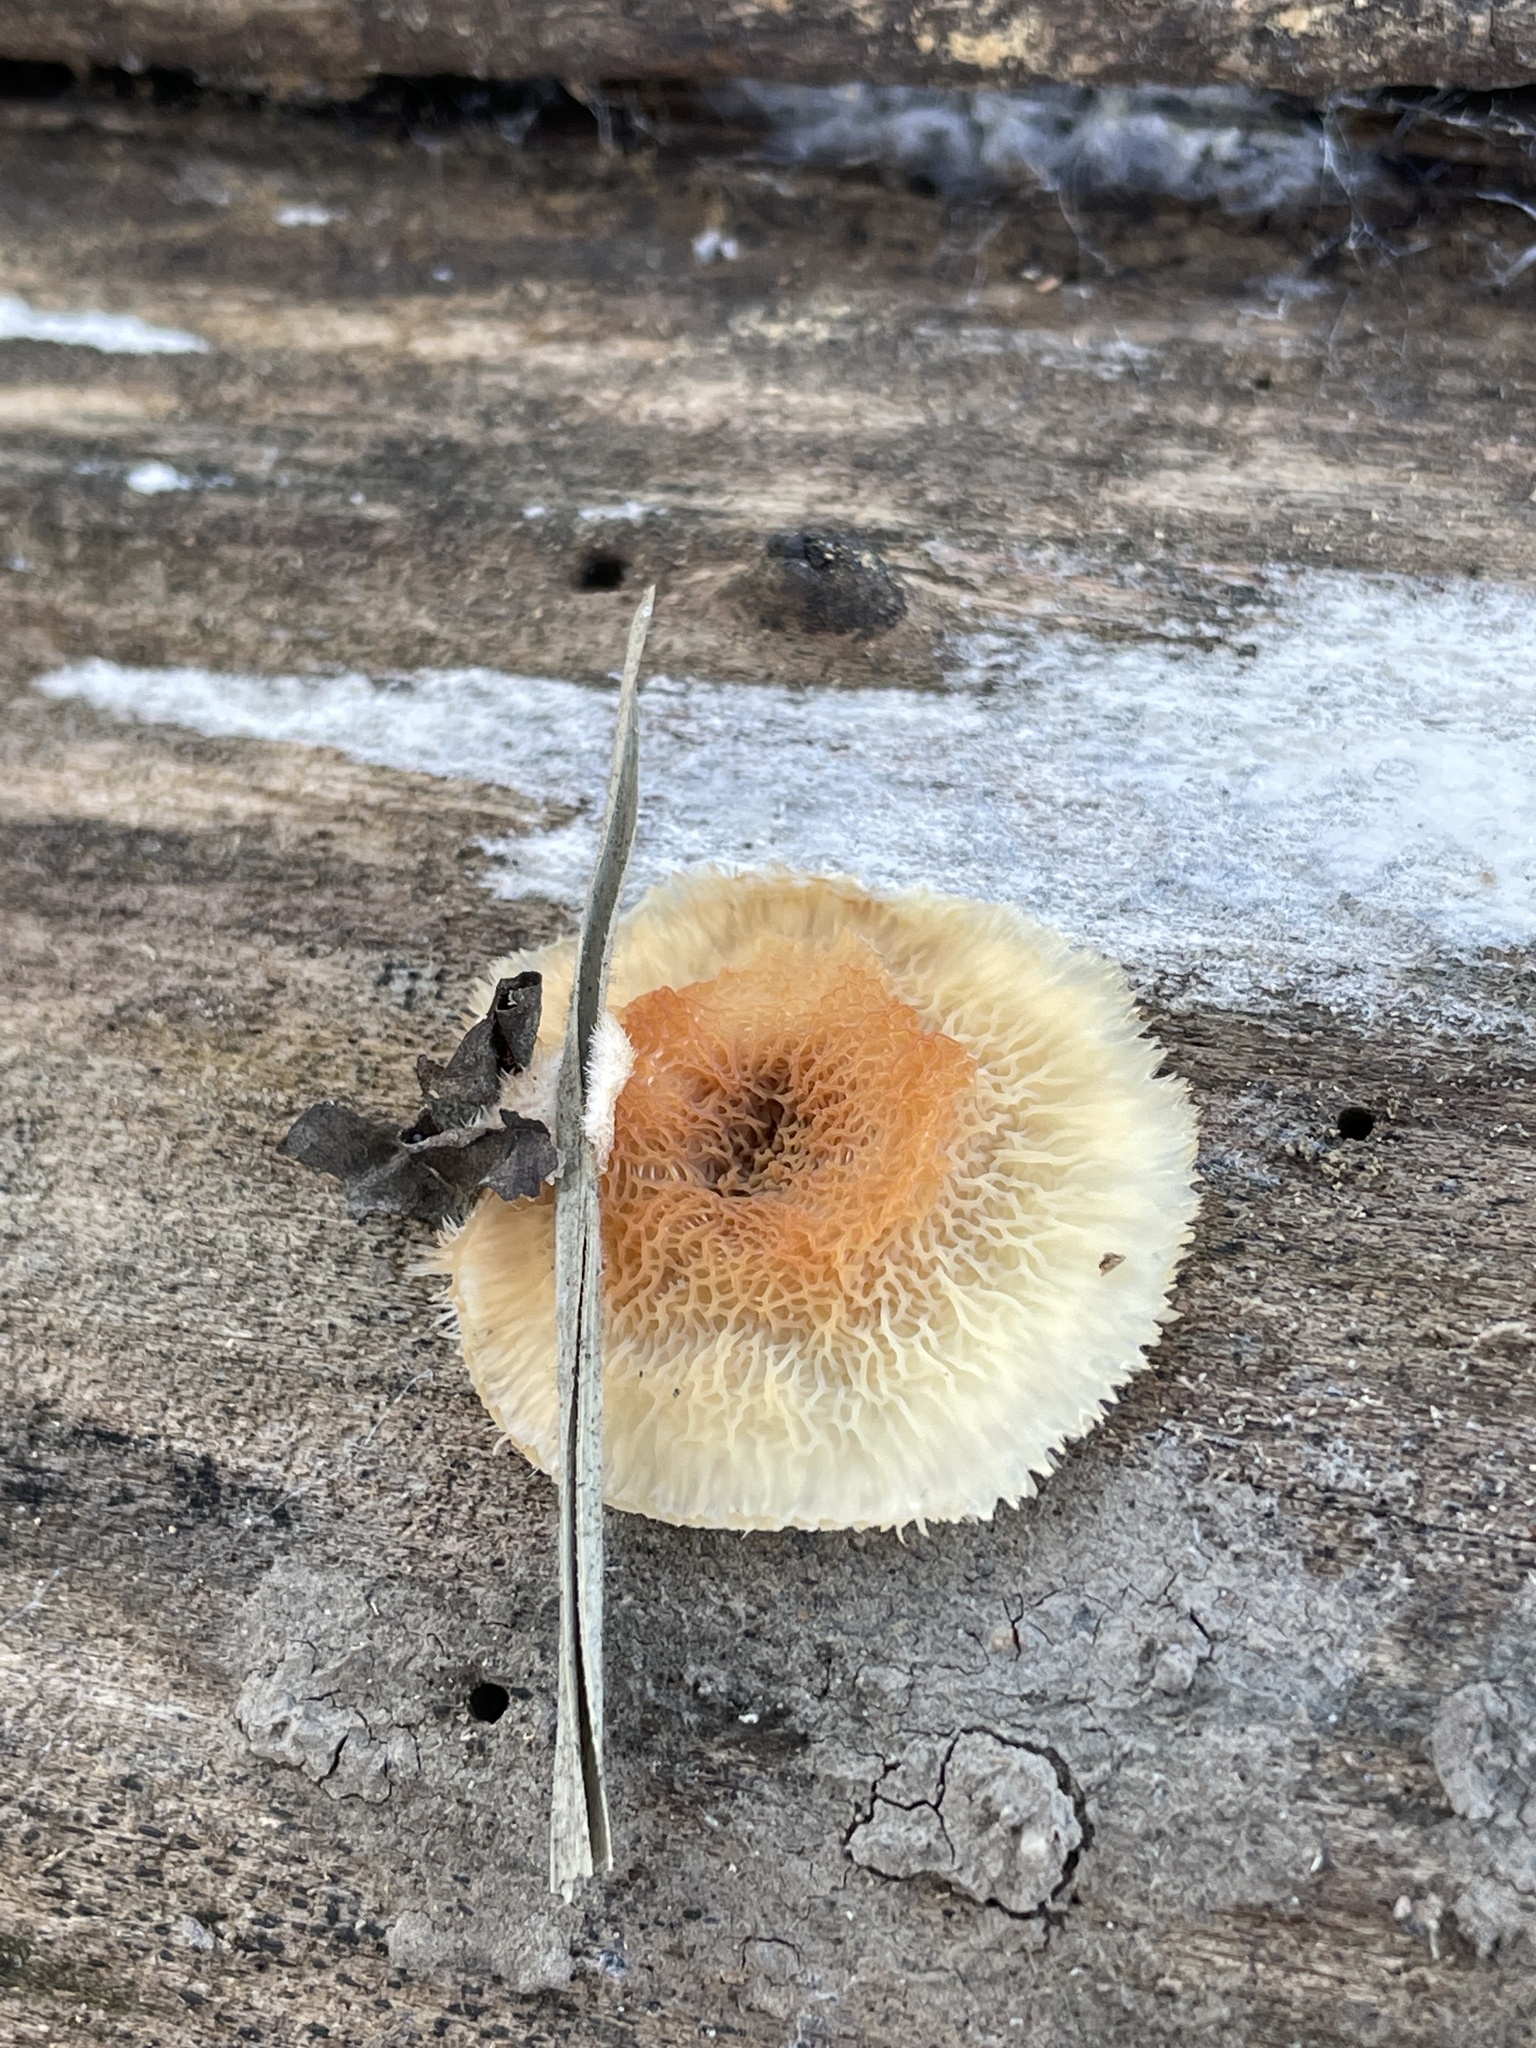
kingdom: Fungi
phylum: Basidiomycota
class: Agaricomycetes
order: Polyporales
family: Meruliaceae
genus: Phlebia
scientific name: Phlebia tremellosa
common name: Jelly rot
